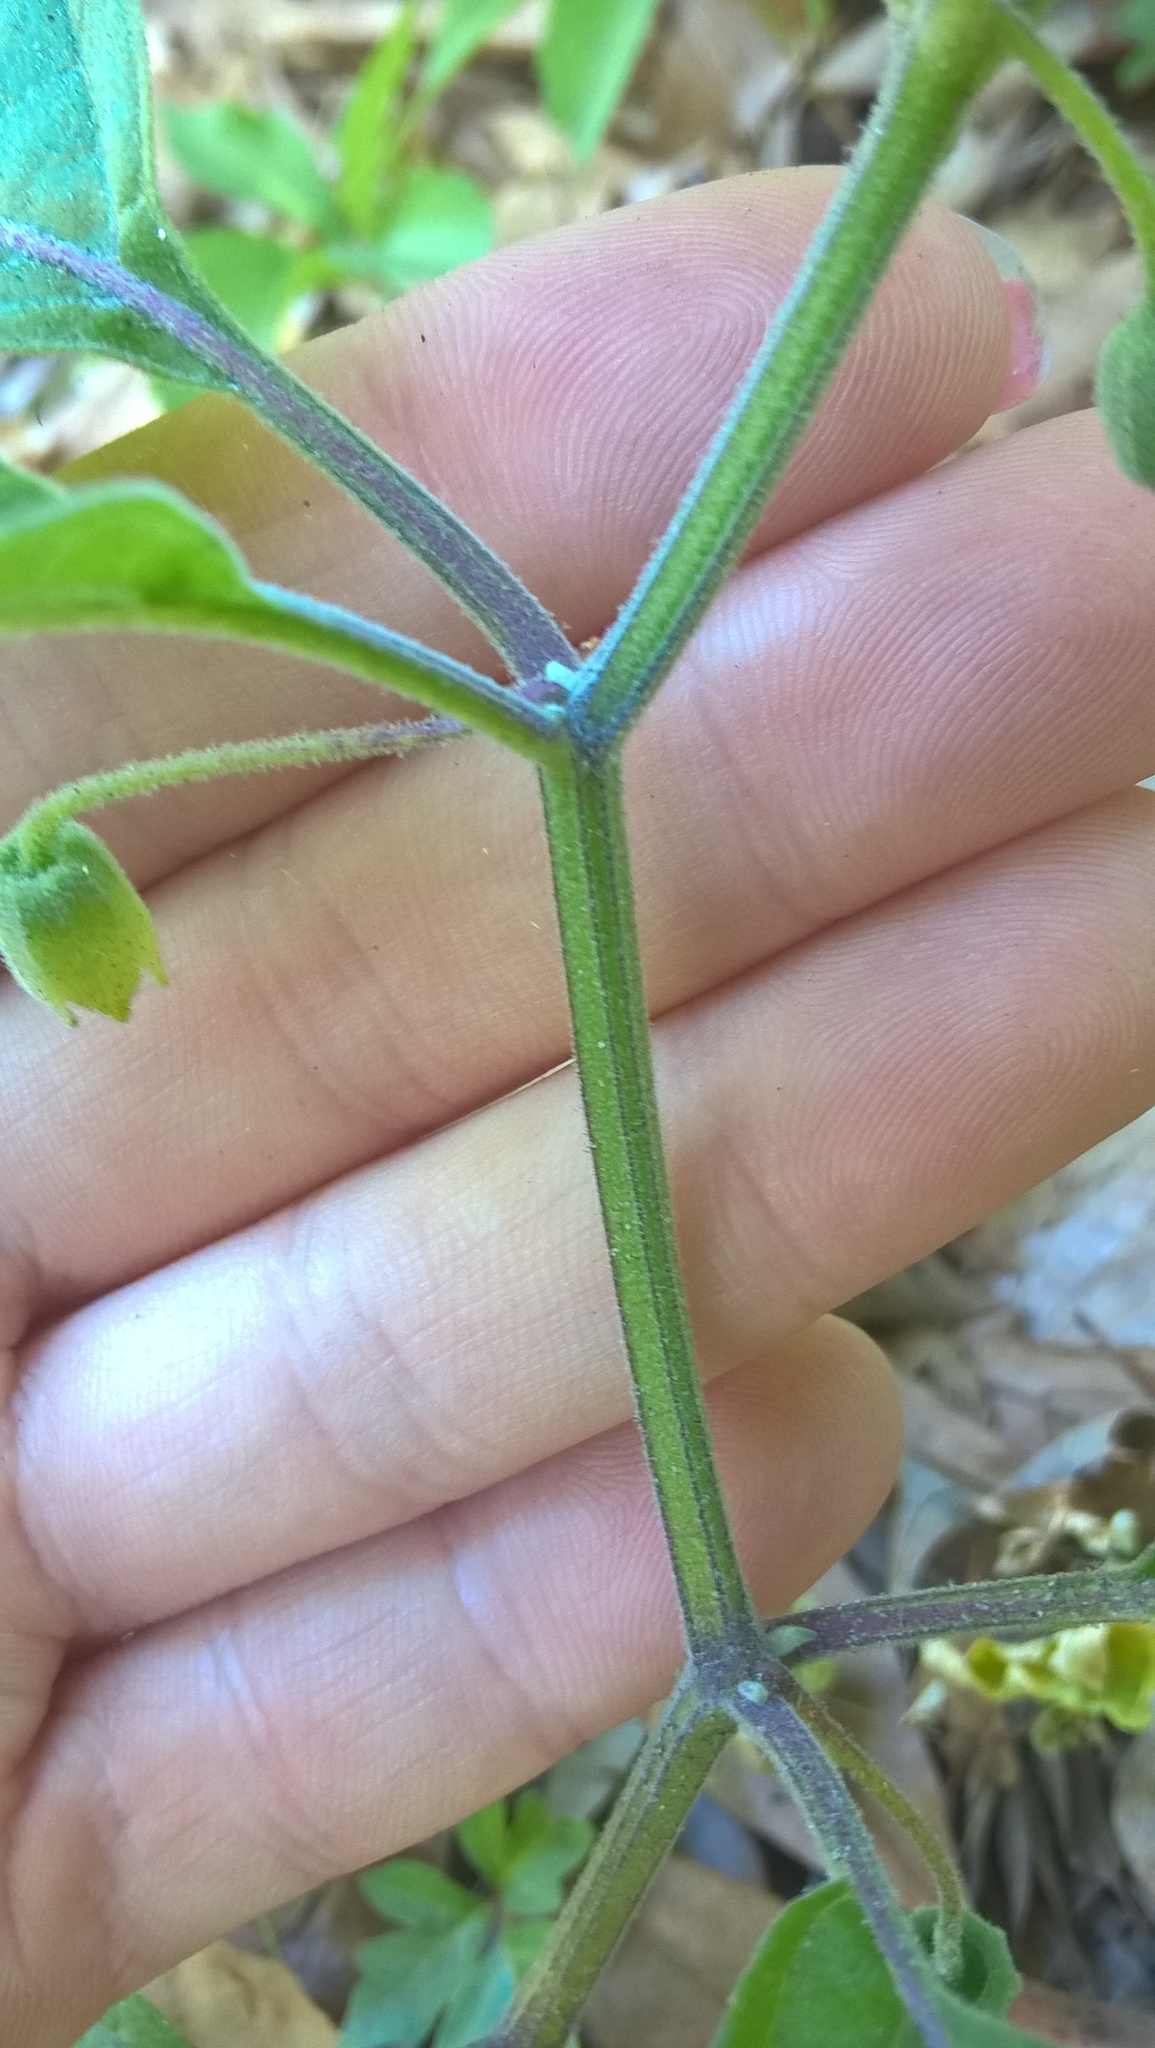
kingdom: Plantae
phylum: Tracheophyta
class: Magnoliopsida
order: Solanales
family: Solanaceae
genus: Physalis
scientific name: Physalis walteri
